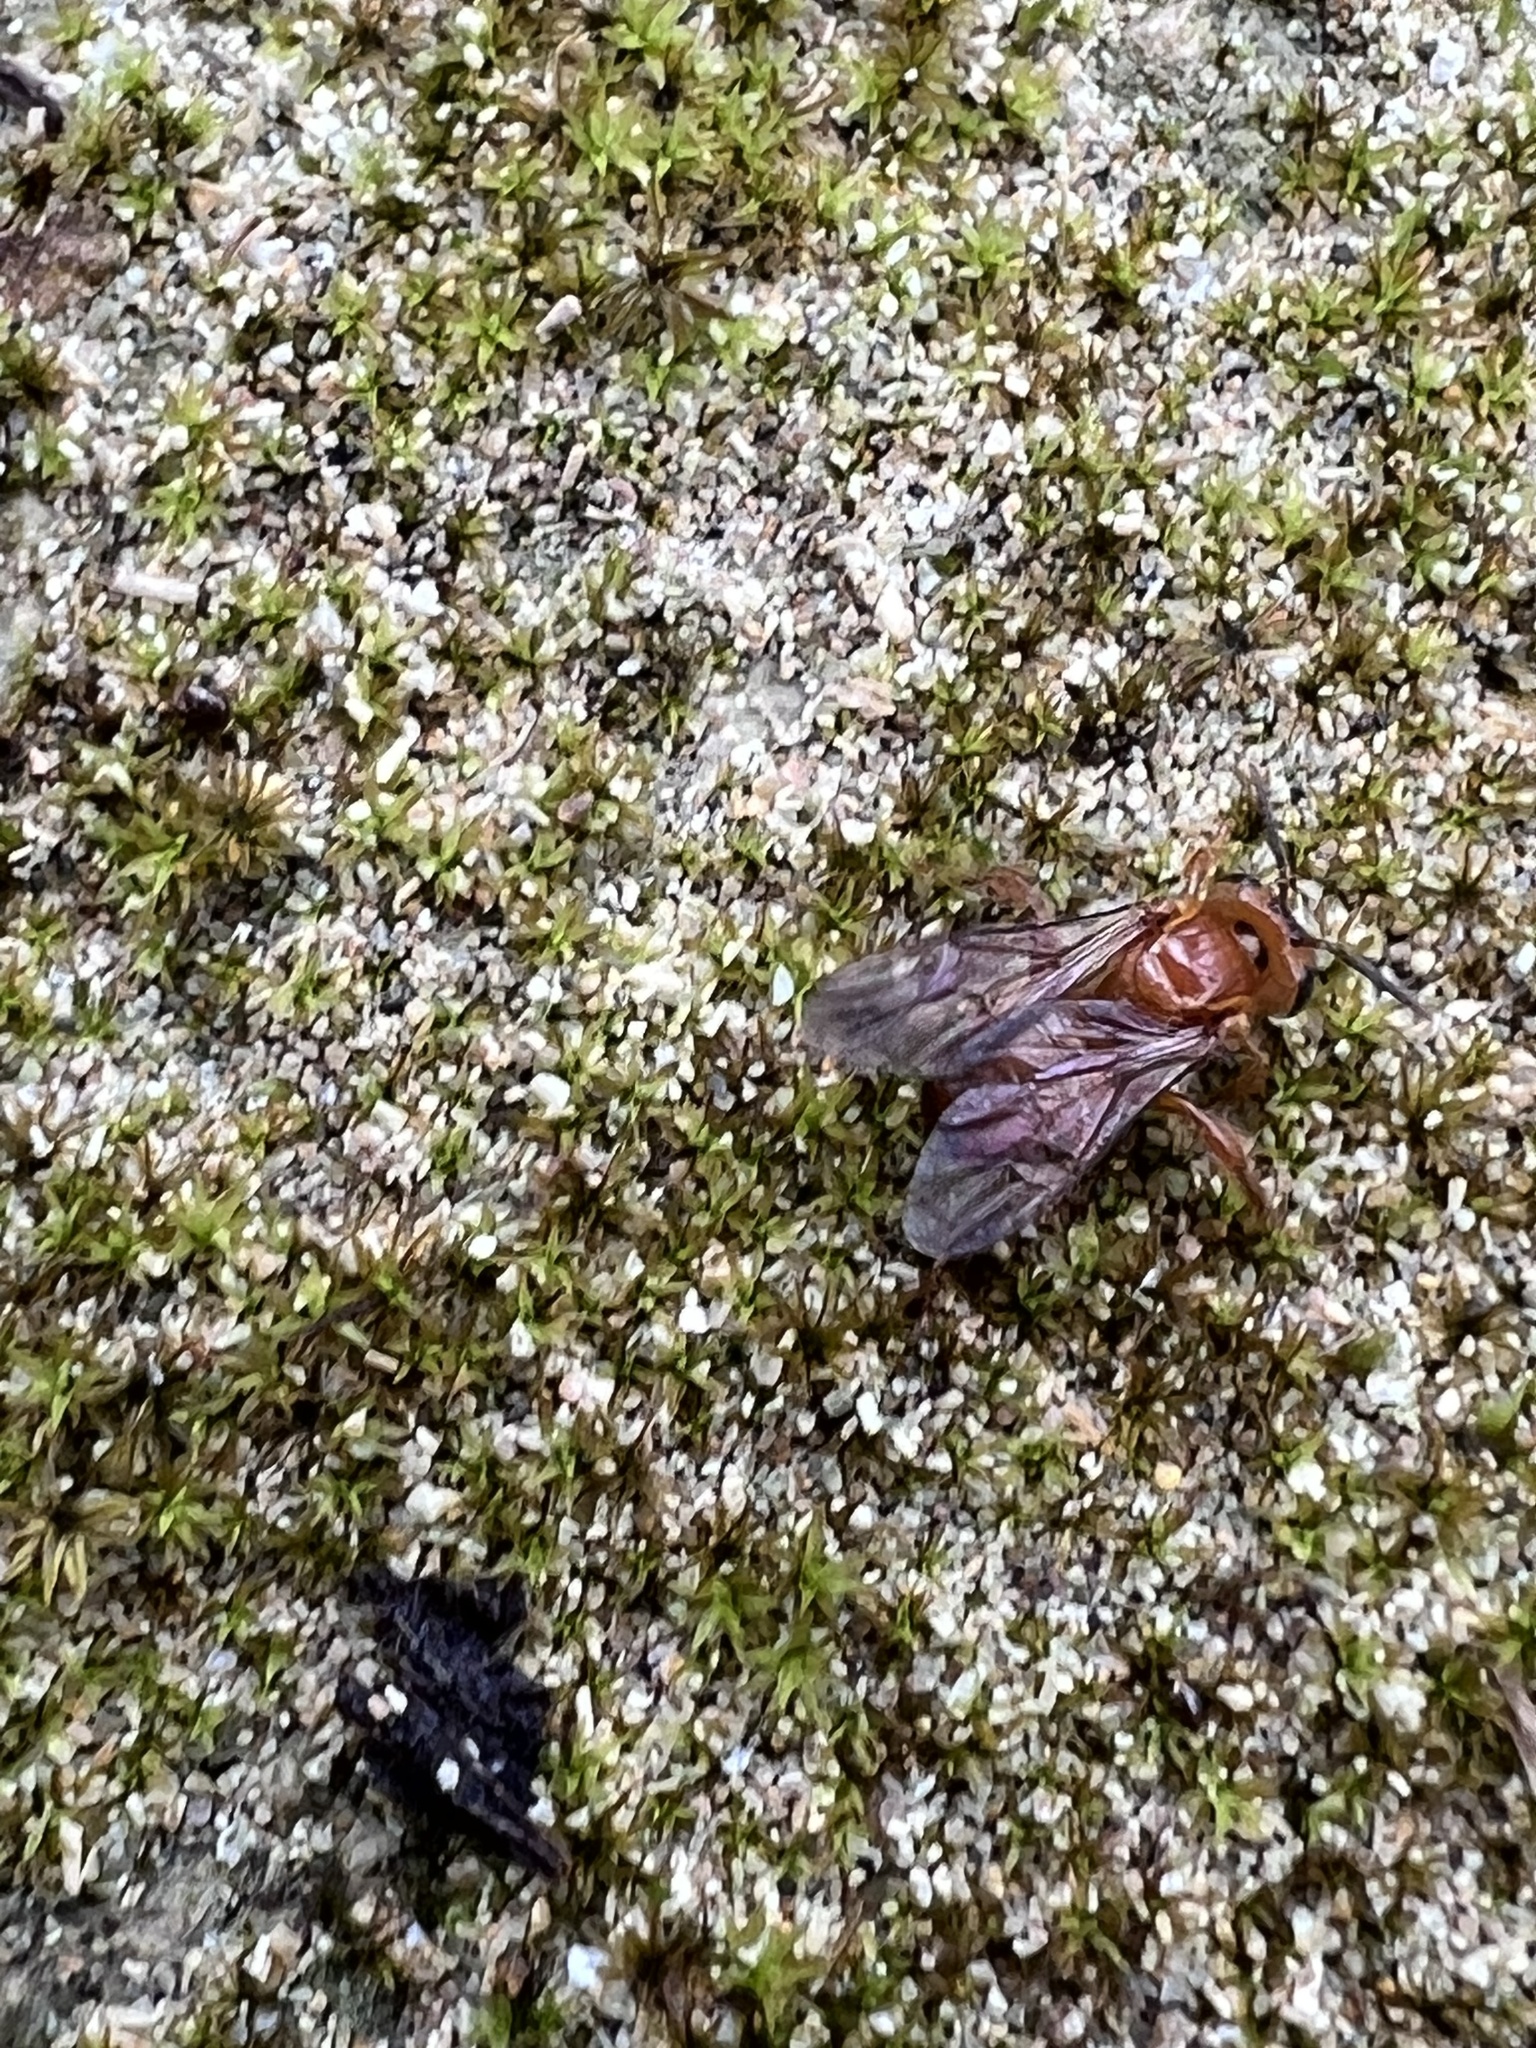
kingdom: Animalia
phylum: Arthropoda
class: Insecta
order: Hymenoptera
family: Apidae
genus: Partamona
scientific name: Partamona musarum
